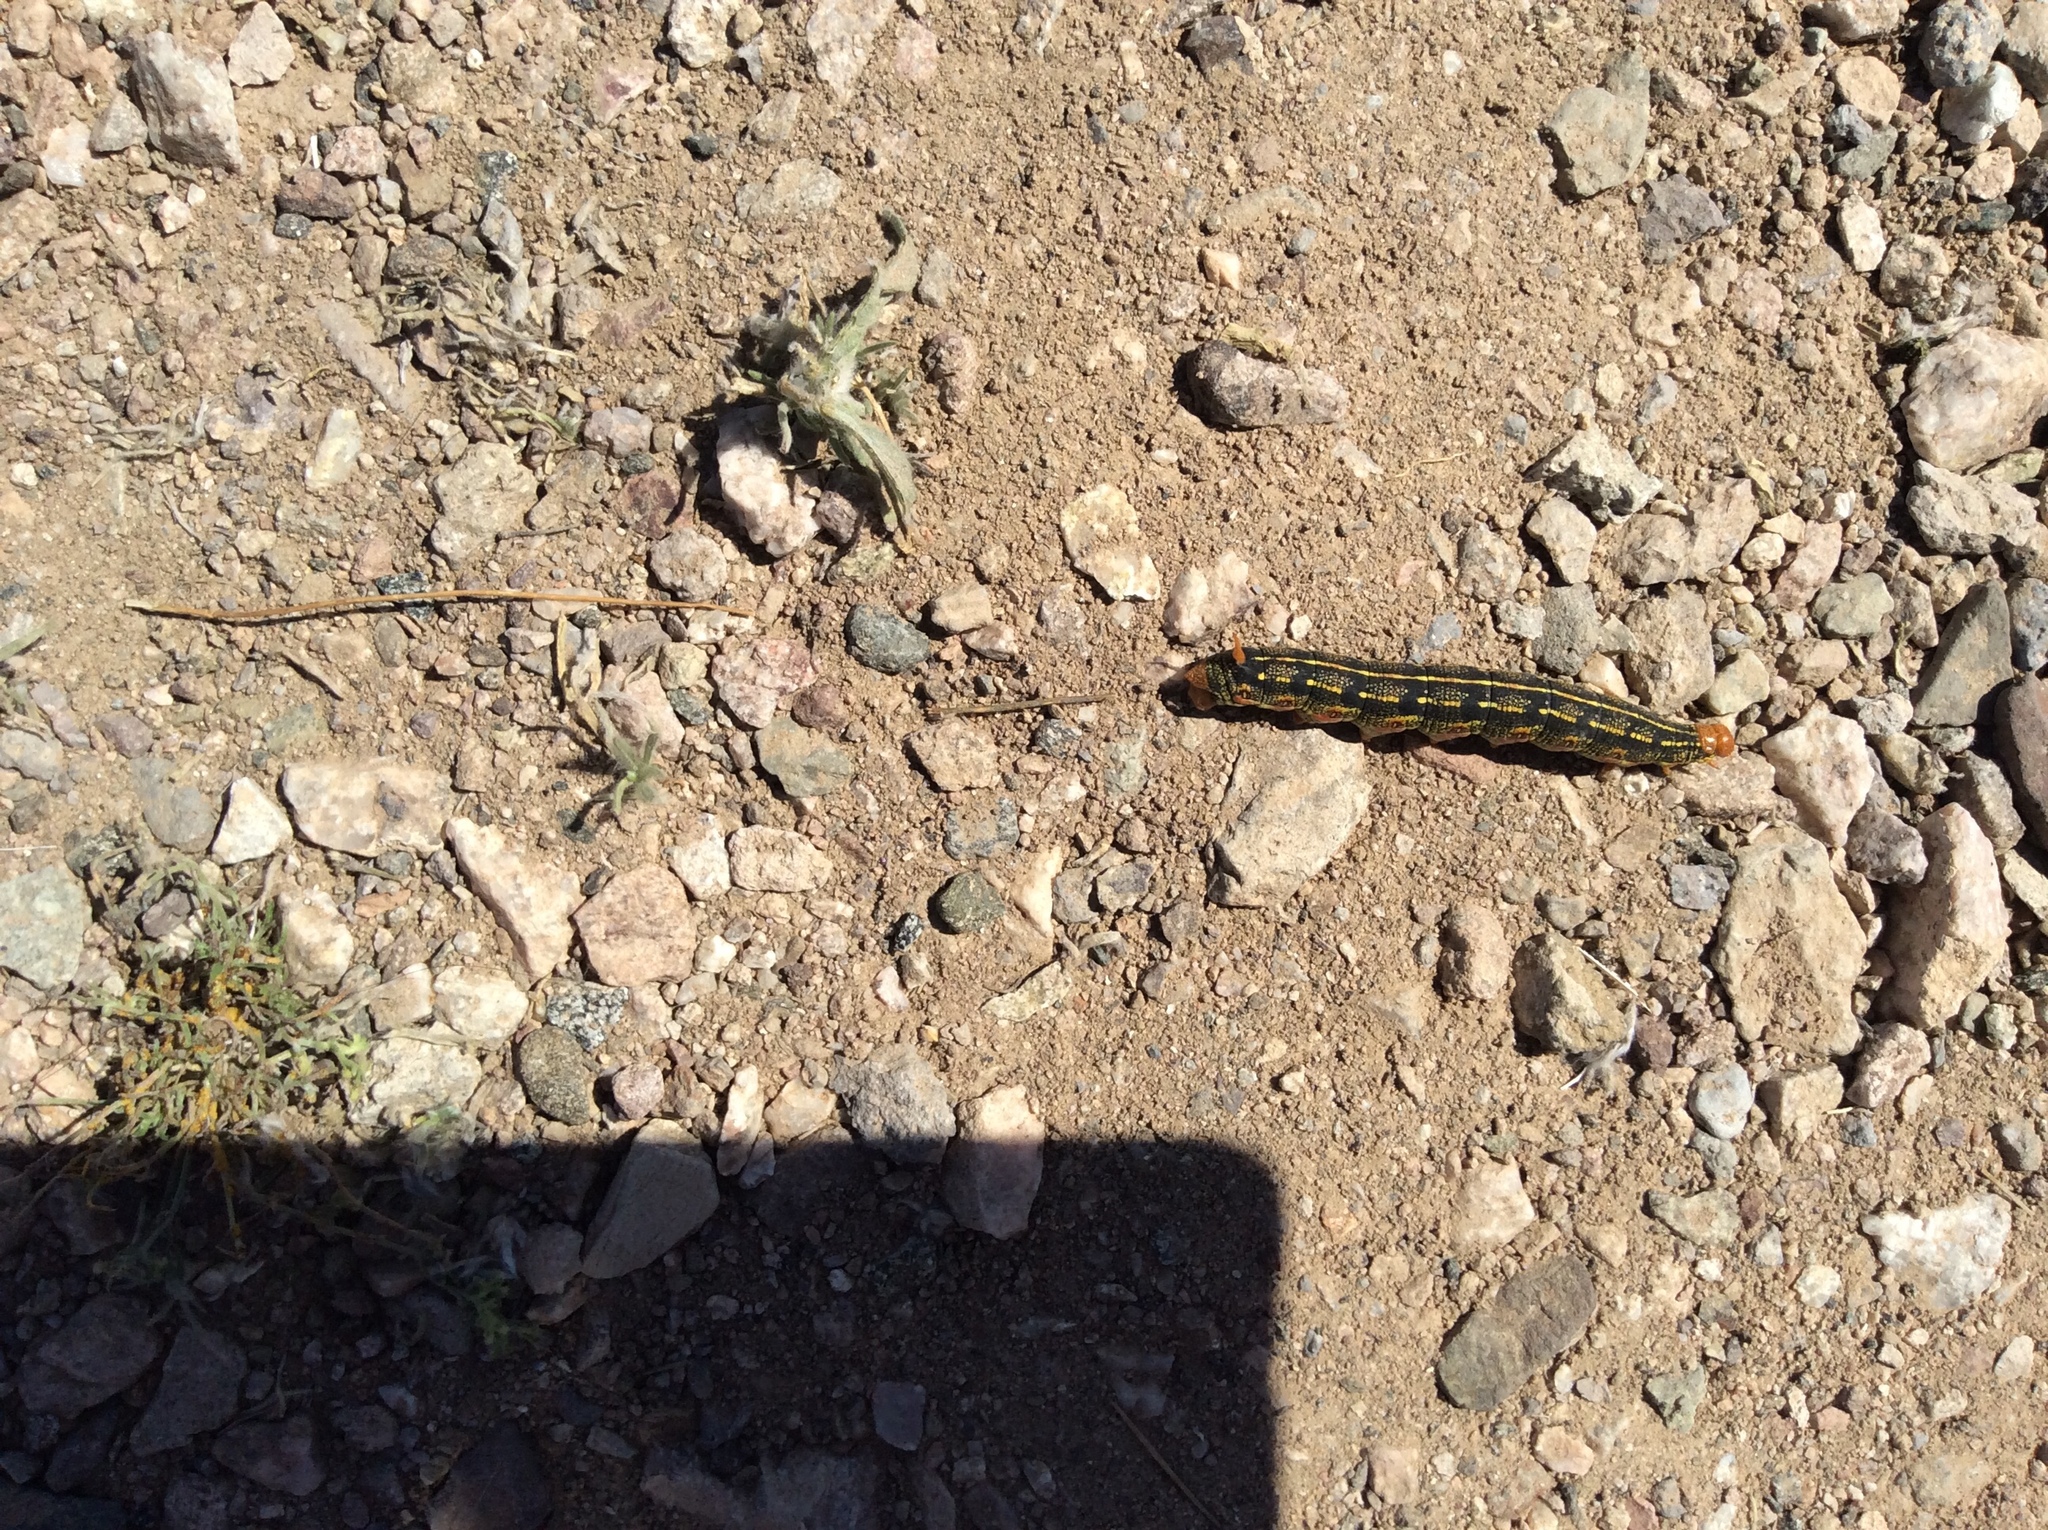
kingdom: Animalia
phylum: Arthropoda
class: Insecta
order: Lepidoptera
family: Sphingidae
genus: Hyles
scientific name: Hyles lineata
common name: White-lined sphinx
